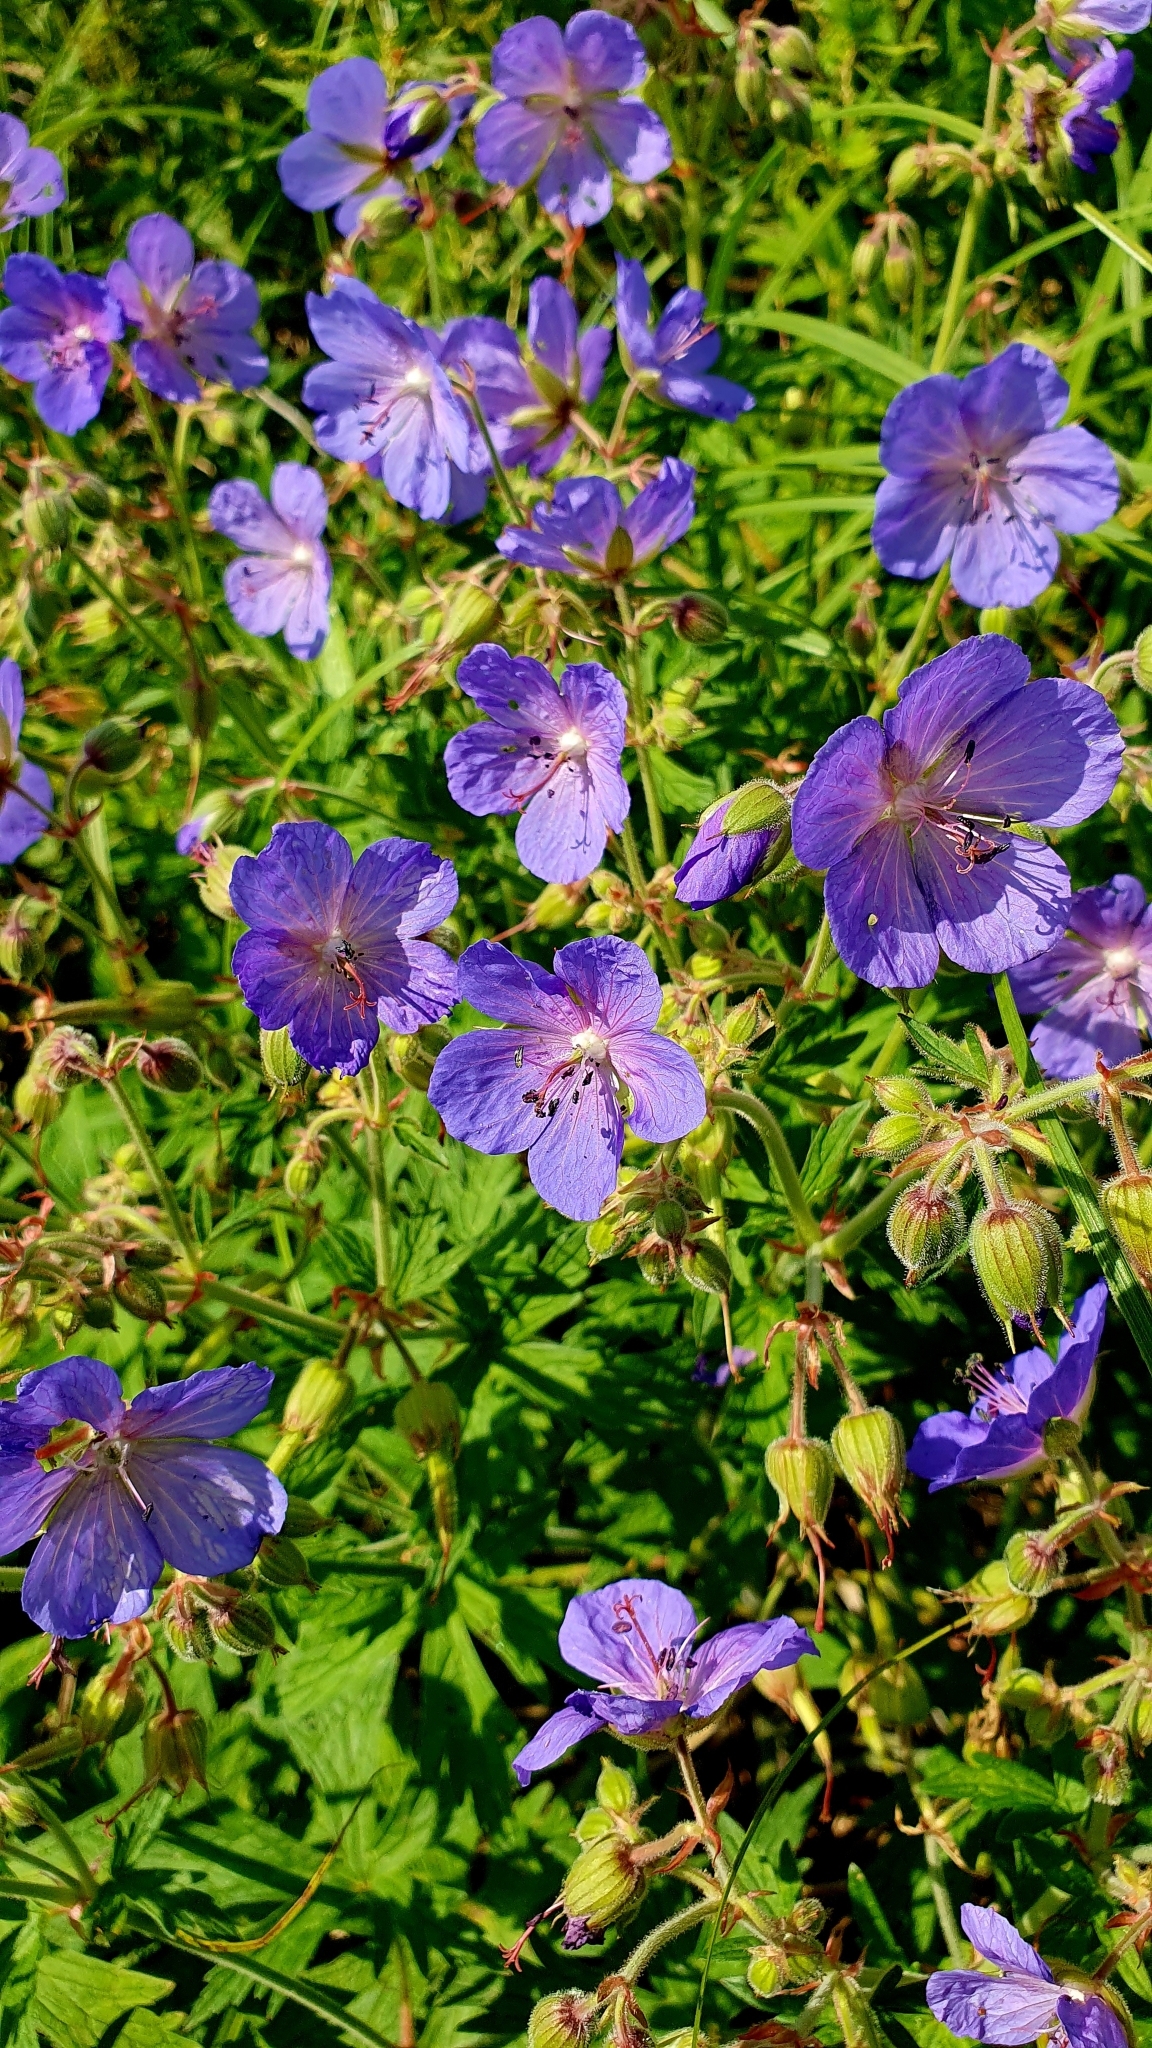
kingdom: Plantae
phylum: Tracheophyta
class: Magnoliopsida
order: Geraniales
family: Geraniaceae
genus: Geranium
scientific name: Geranium pratense
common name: Meadow crane's-bill
